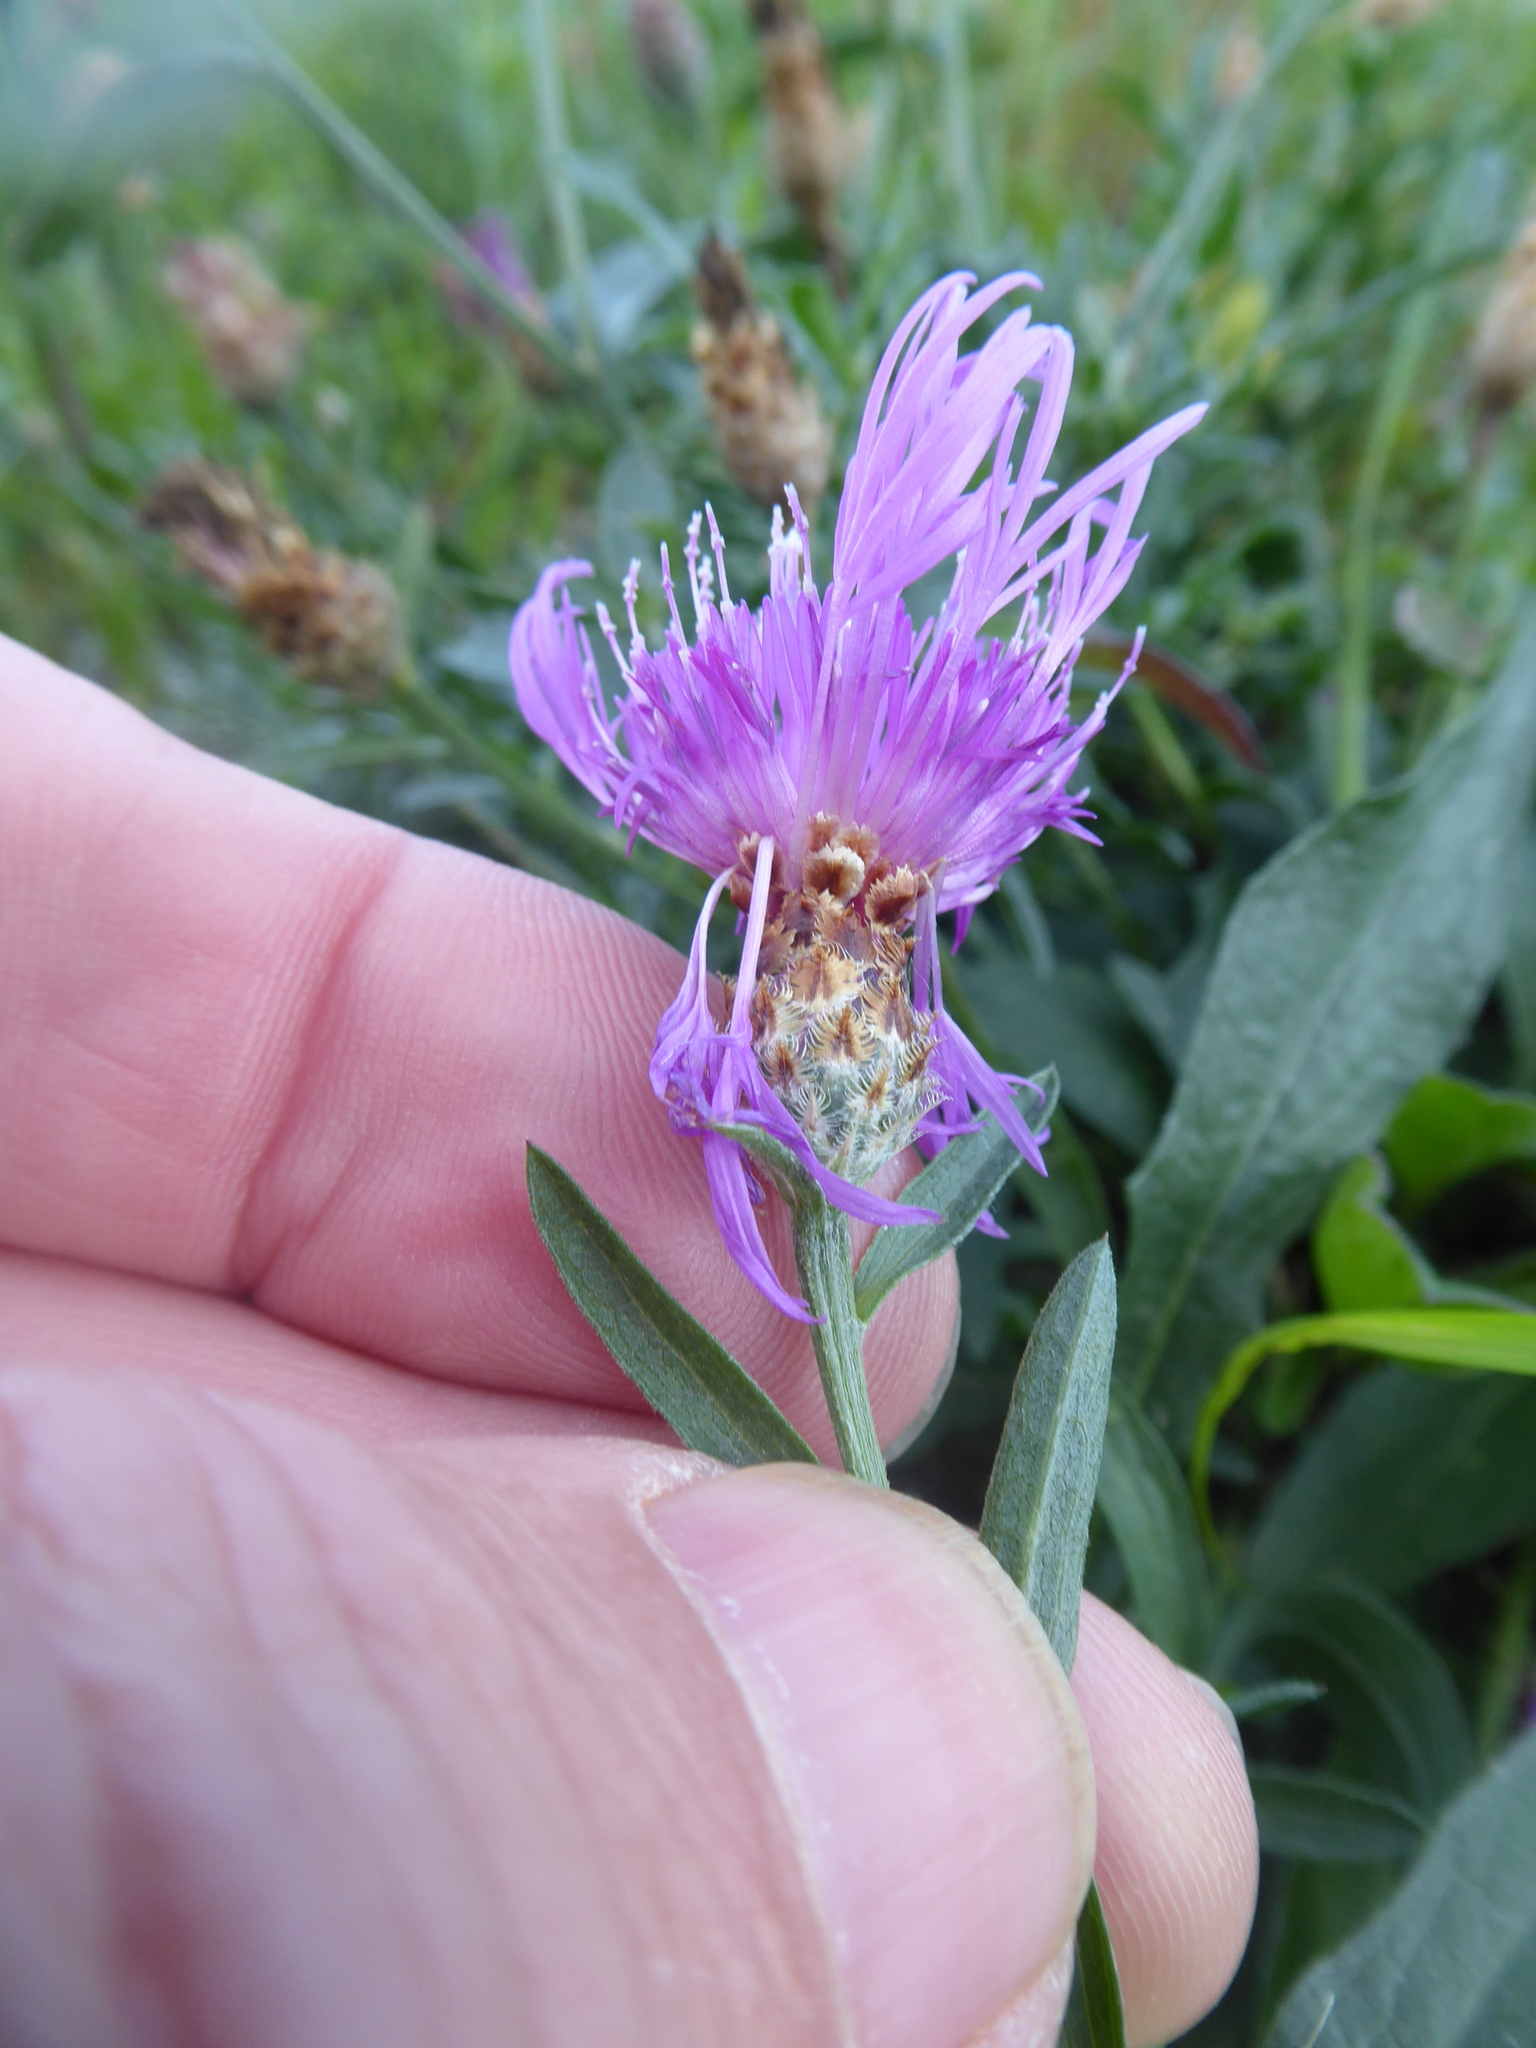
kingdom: Plantae
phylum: Tracheophyta
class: Magnoliopsida
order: Asterales
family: Asteraceae
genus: Centaurea
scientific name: Centaurea jacea
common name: Brown knapweed
